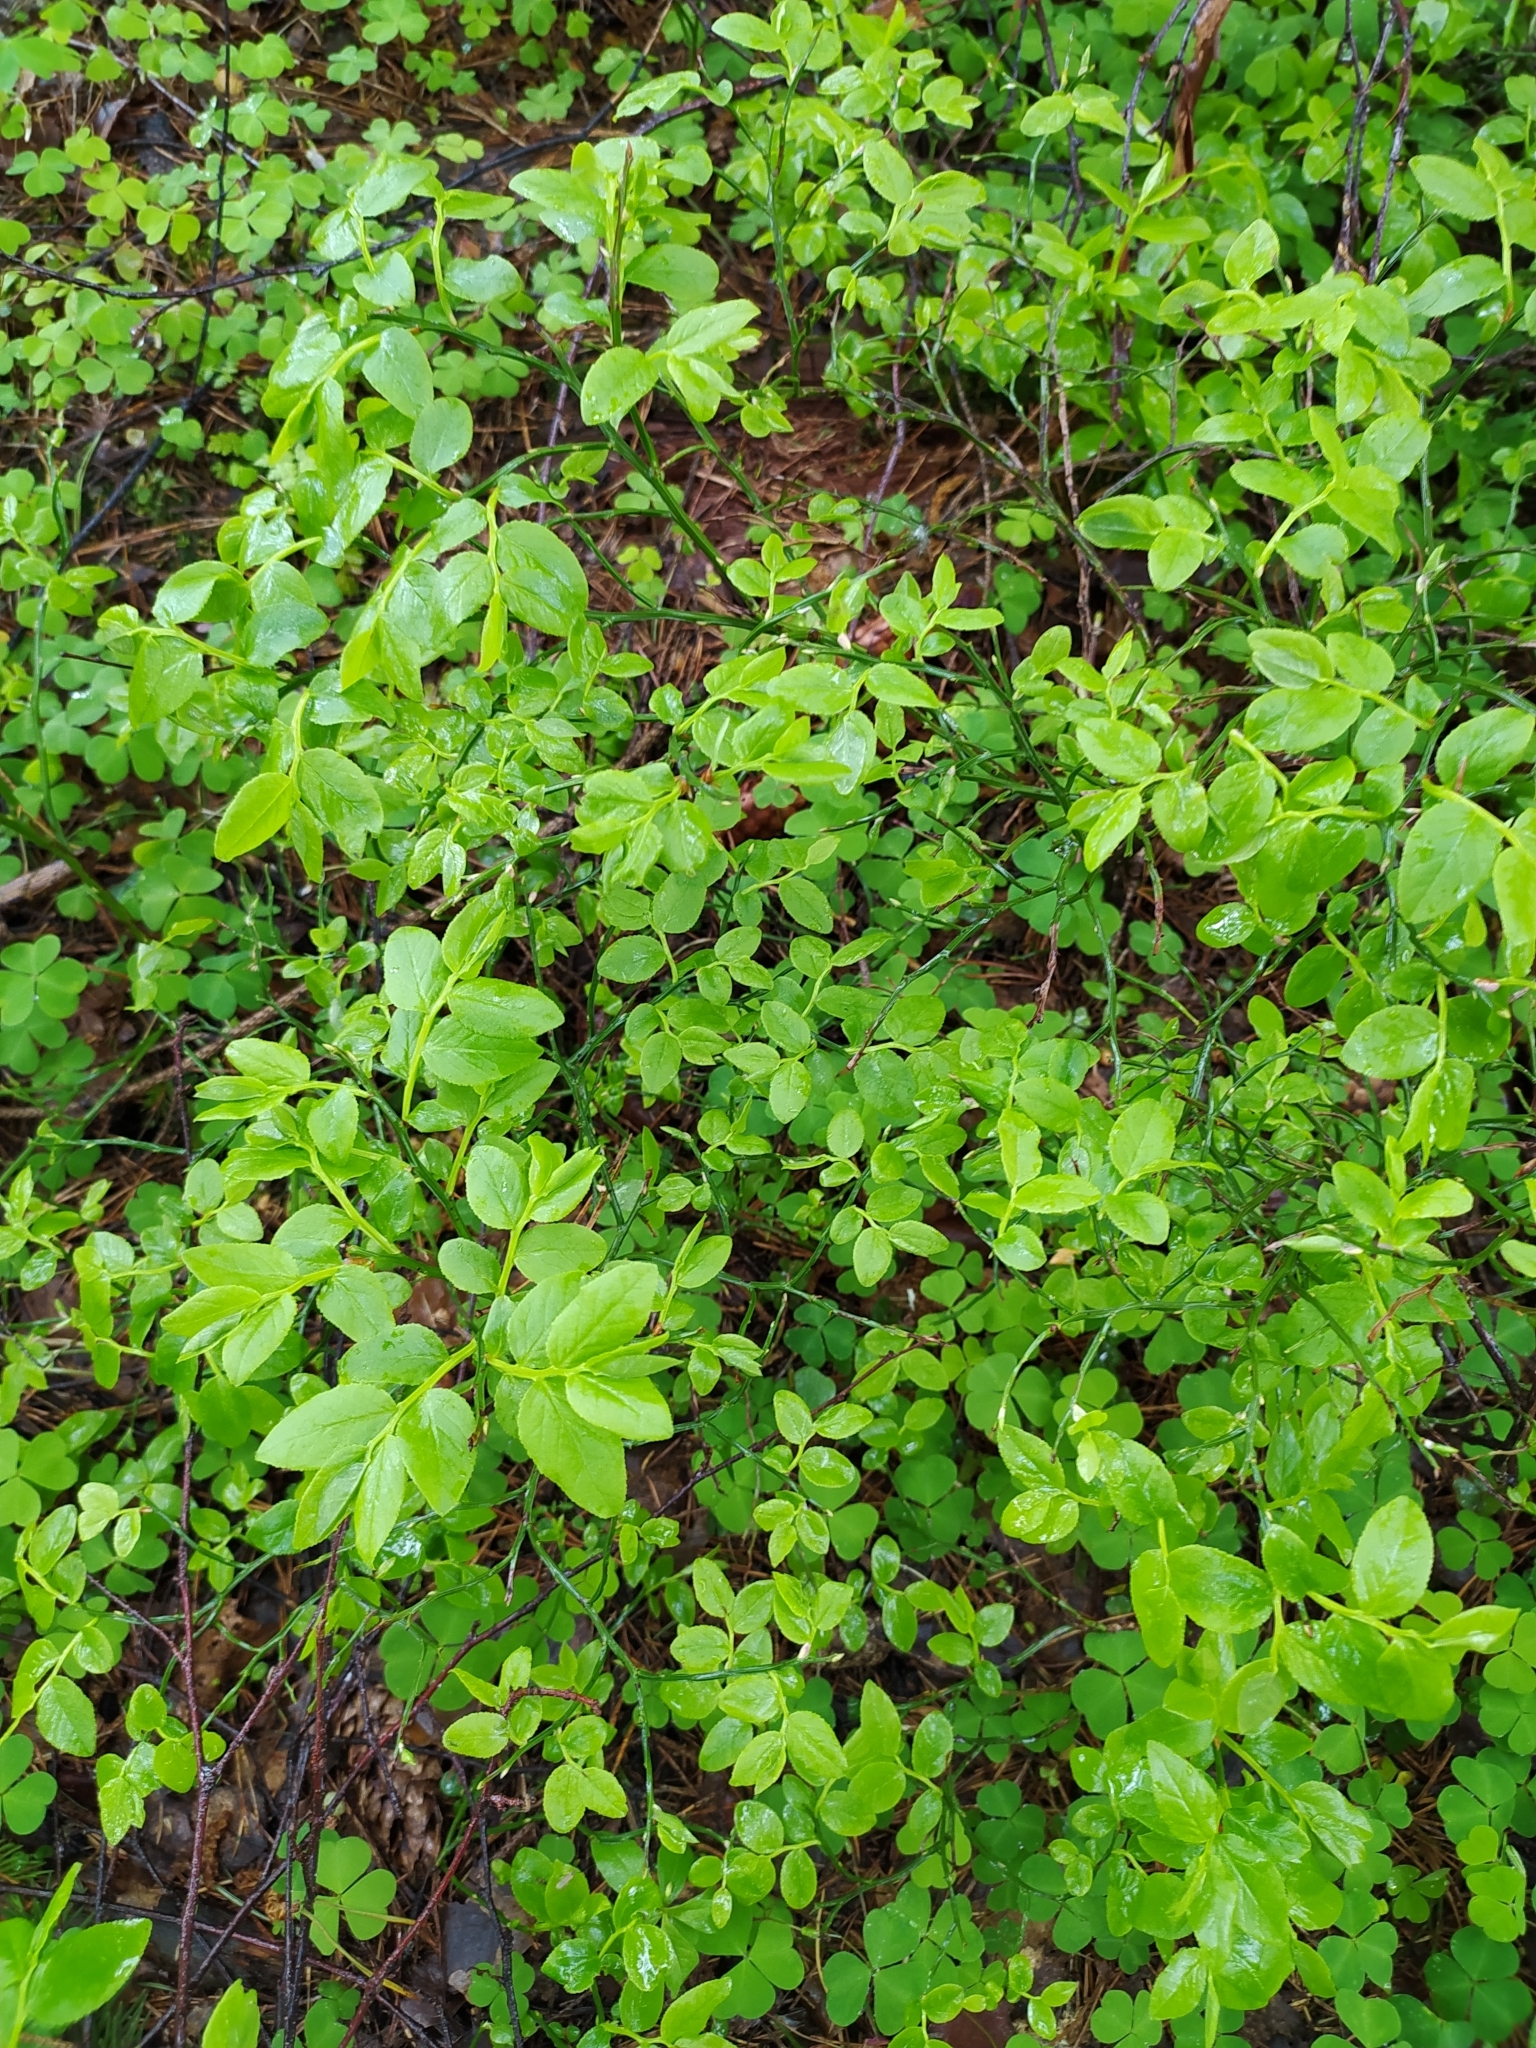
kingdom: Plantae
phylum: Tracheophyta
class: Magnoliopsida
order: Ericales
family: Ericaceae
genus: Vaccinium
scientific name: Vaccinium myrtillus
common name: Bilberry
